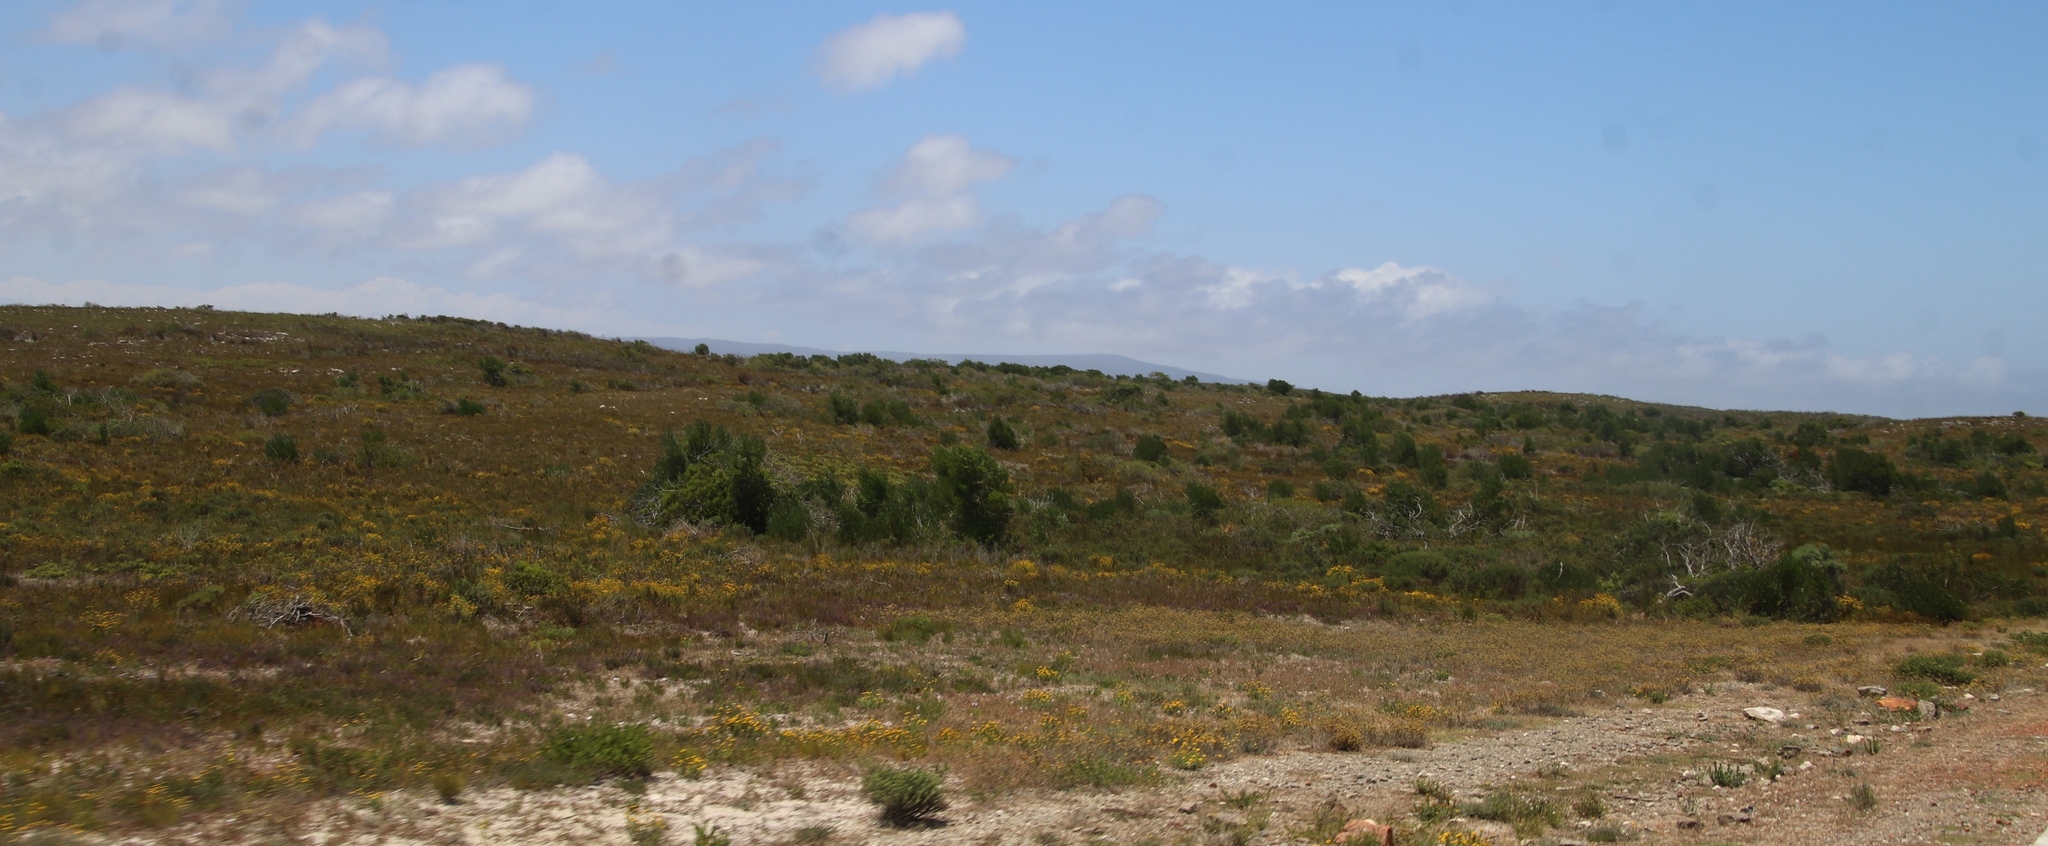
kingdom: Plantae
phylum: Tracheophyta
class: Magnoliopsida
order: Fabales
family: Fabaceae
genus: Acacia
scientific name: Acacia cyclops
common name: Coastal wattle
